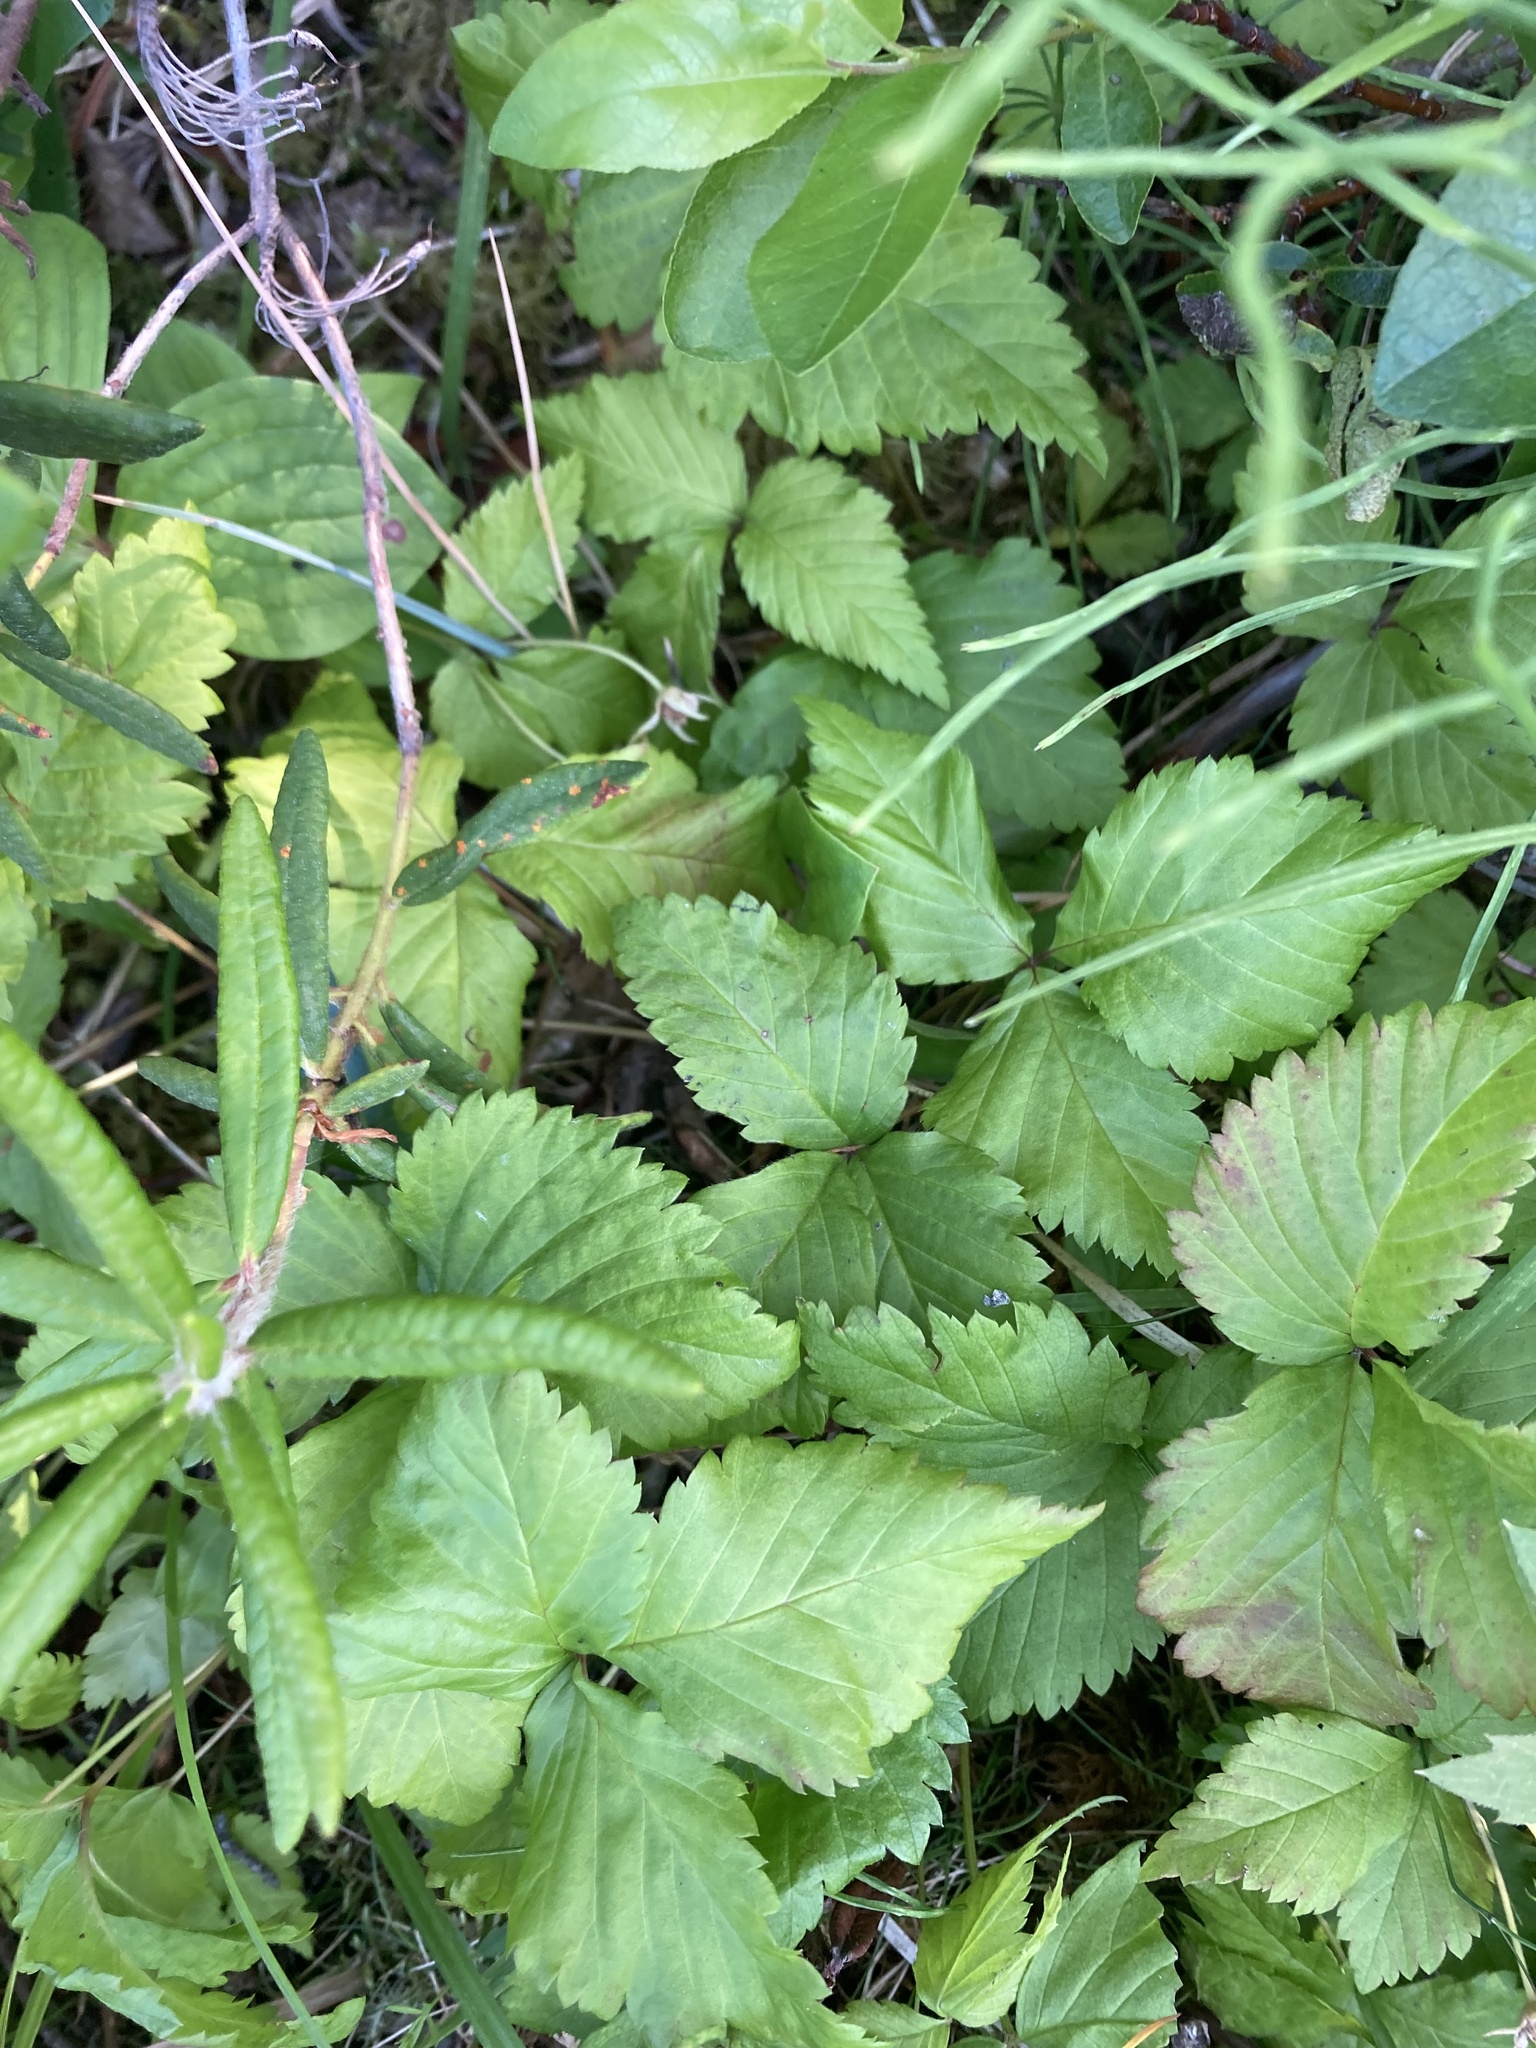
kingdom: Plantae
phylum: Tracheophyta
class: Magnoliopsida
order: Rosales
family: Rosaceae
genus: Rubus
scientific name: Rubus pubescens
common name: Dwarf raspberry
